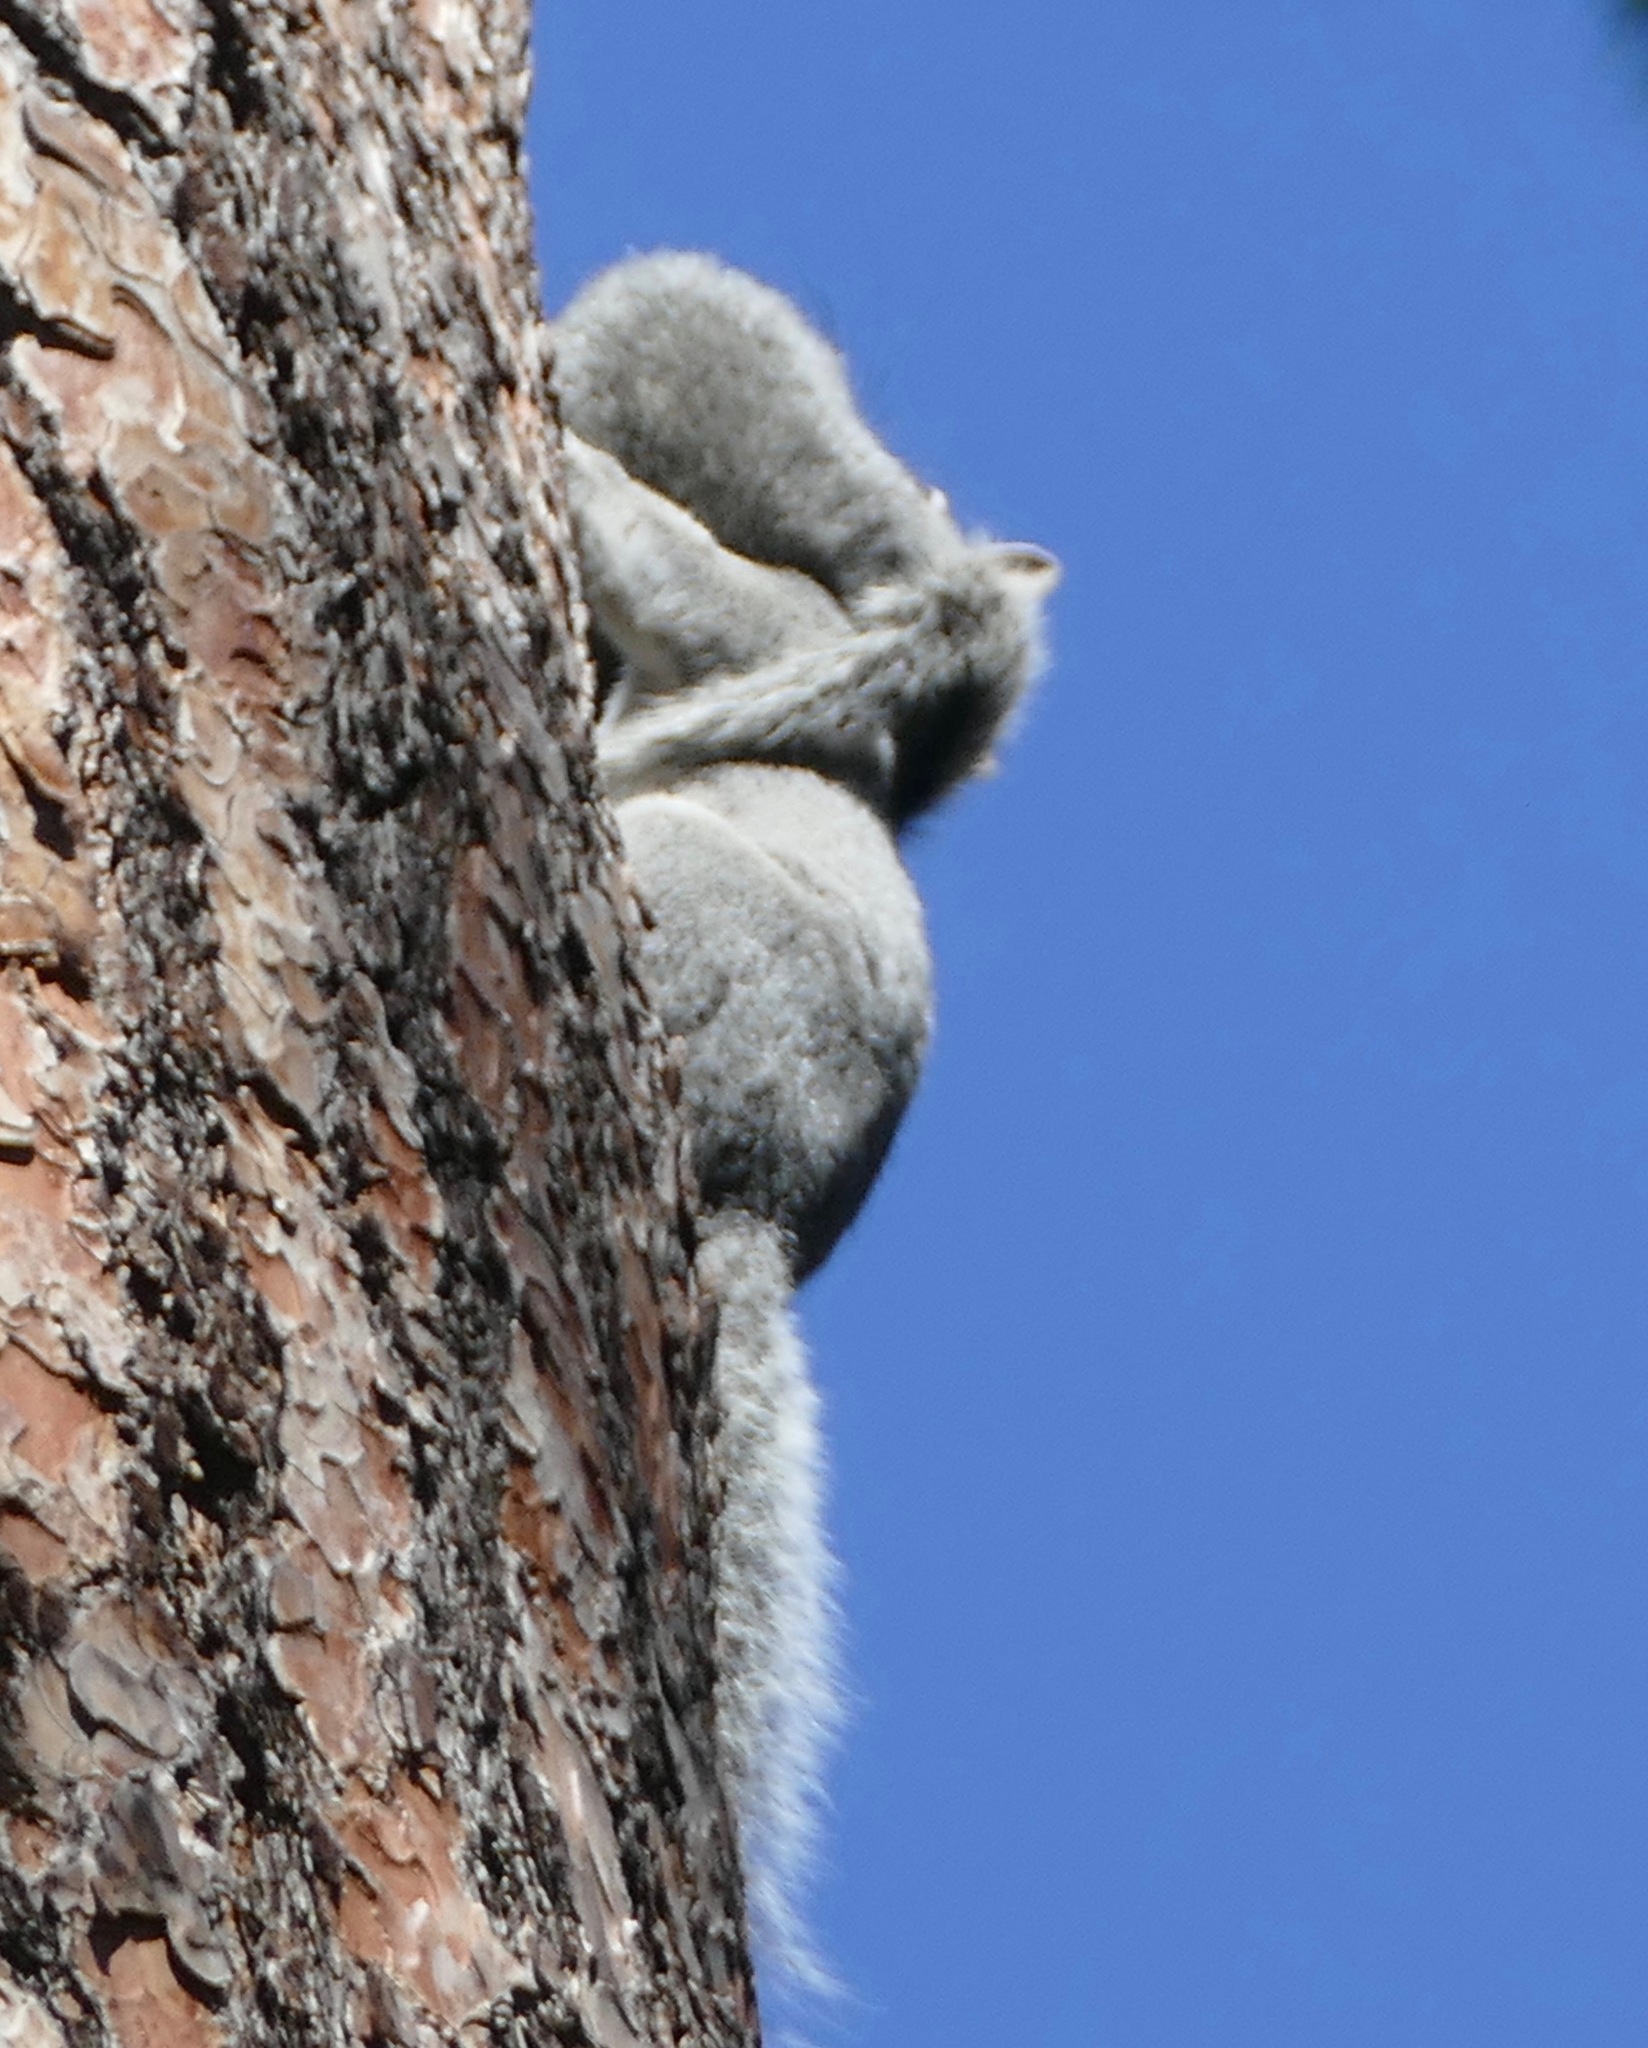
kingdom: Animalia
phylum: Chordata
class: Mammalia
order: Rodentia
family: Sciuridae
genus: Sciurus
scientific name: Sciurus griseus
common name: Western gray squirrel
